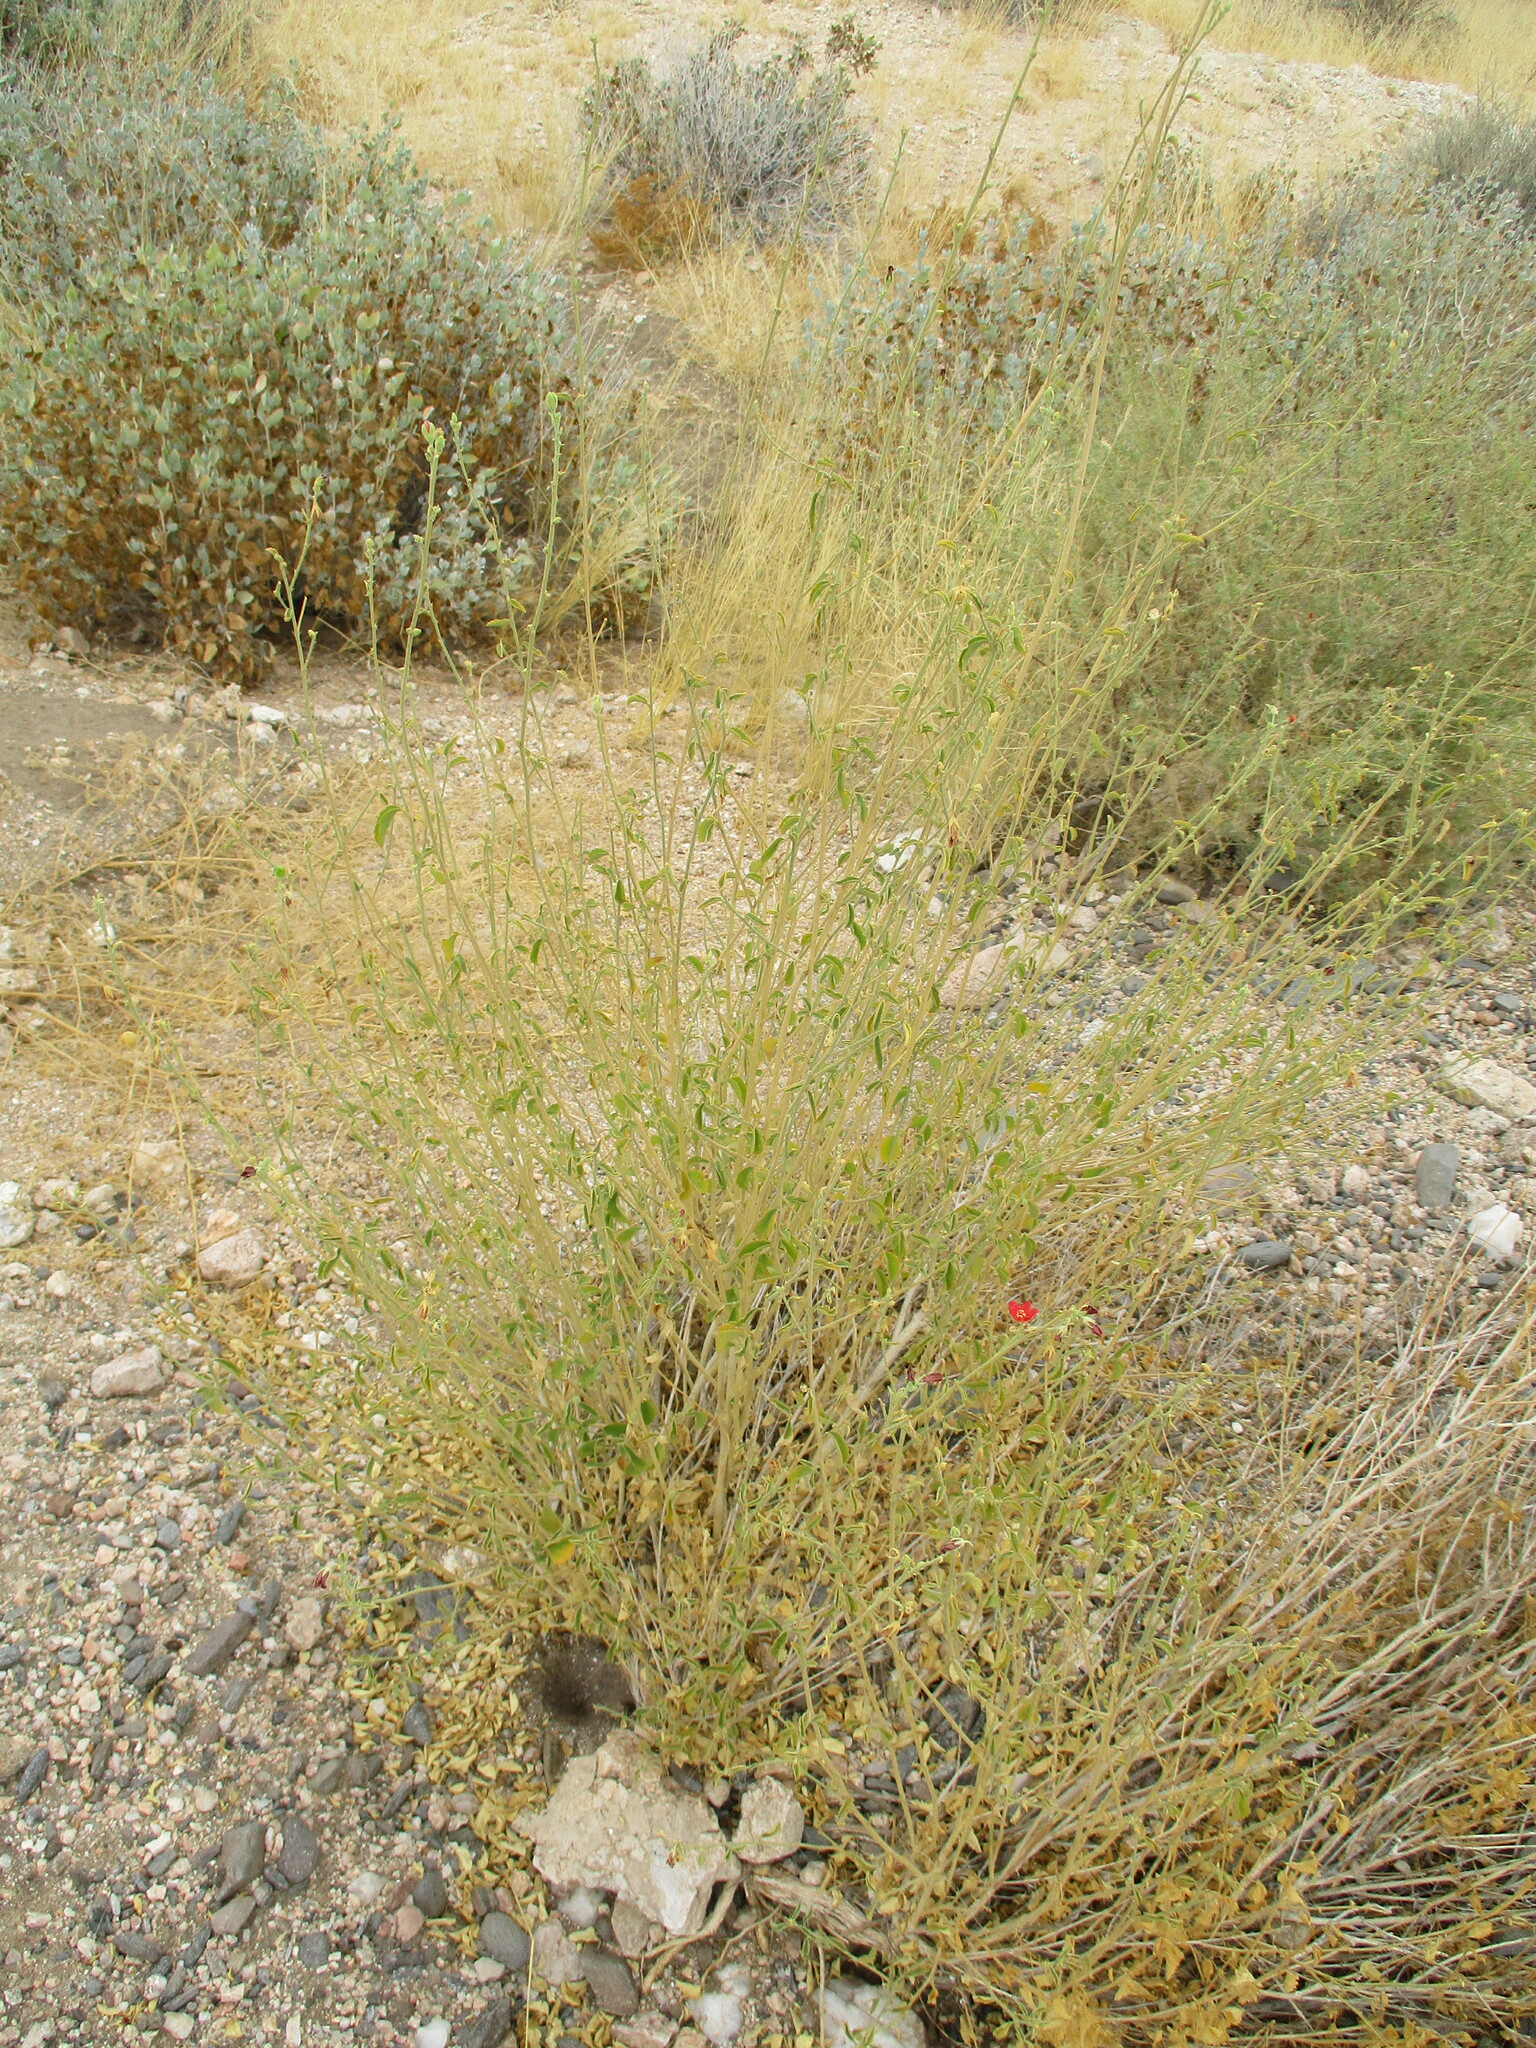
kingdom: Plantae
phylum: Tracheophyta
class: Magnoliopsida
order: Malvales
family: Malvaceae
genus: Hibiscus
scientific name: Hibiscus elliottiae
